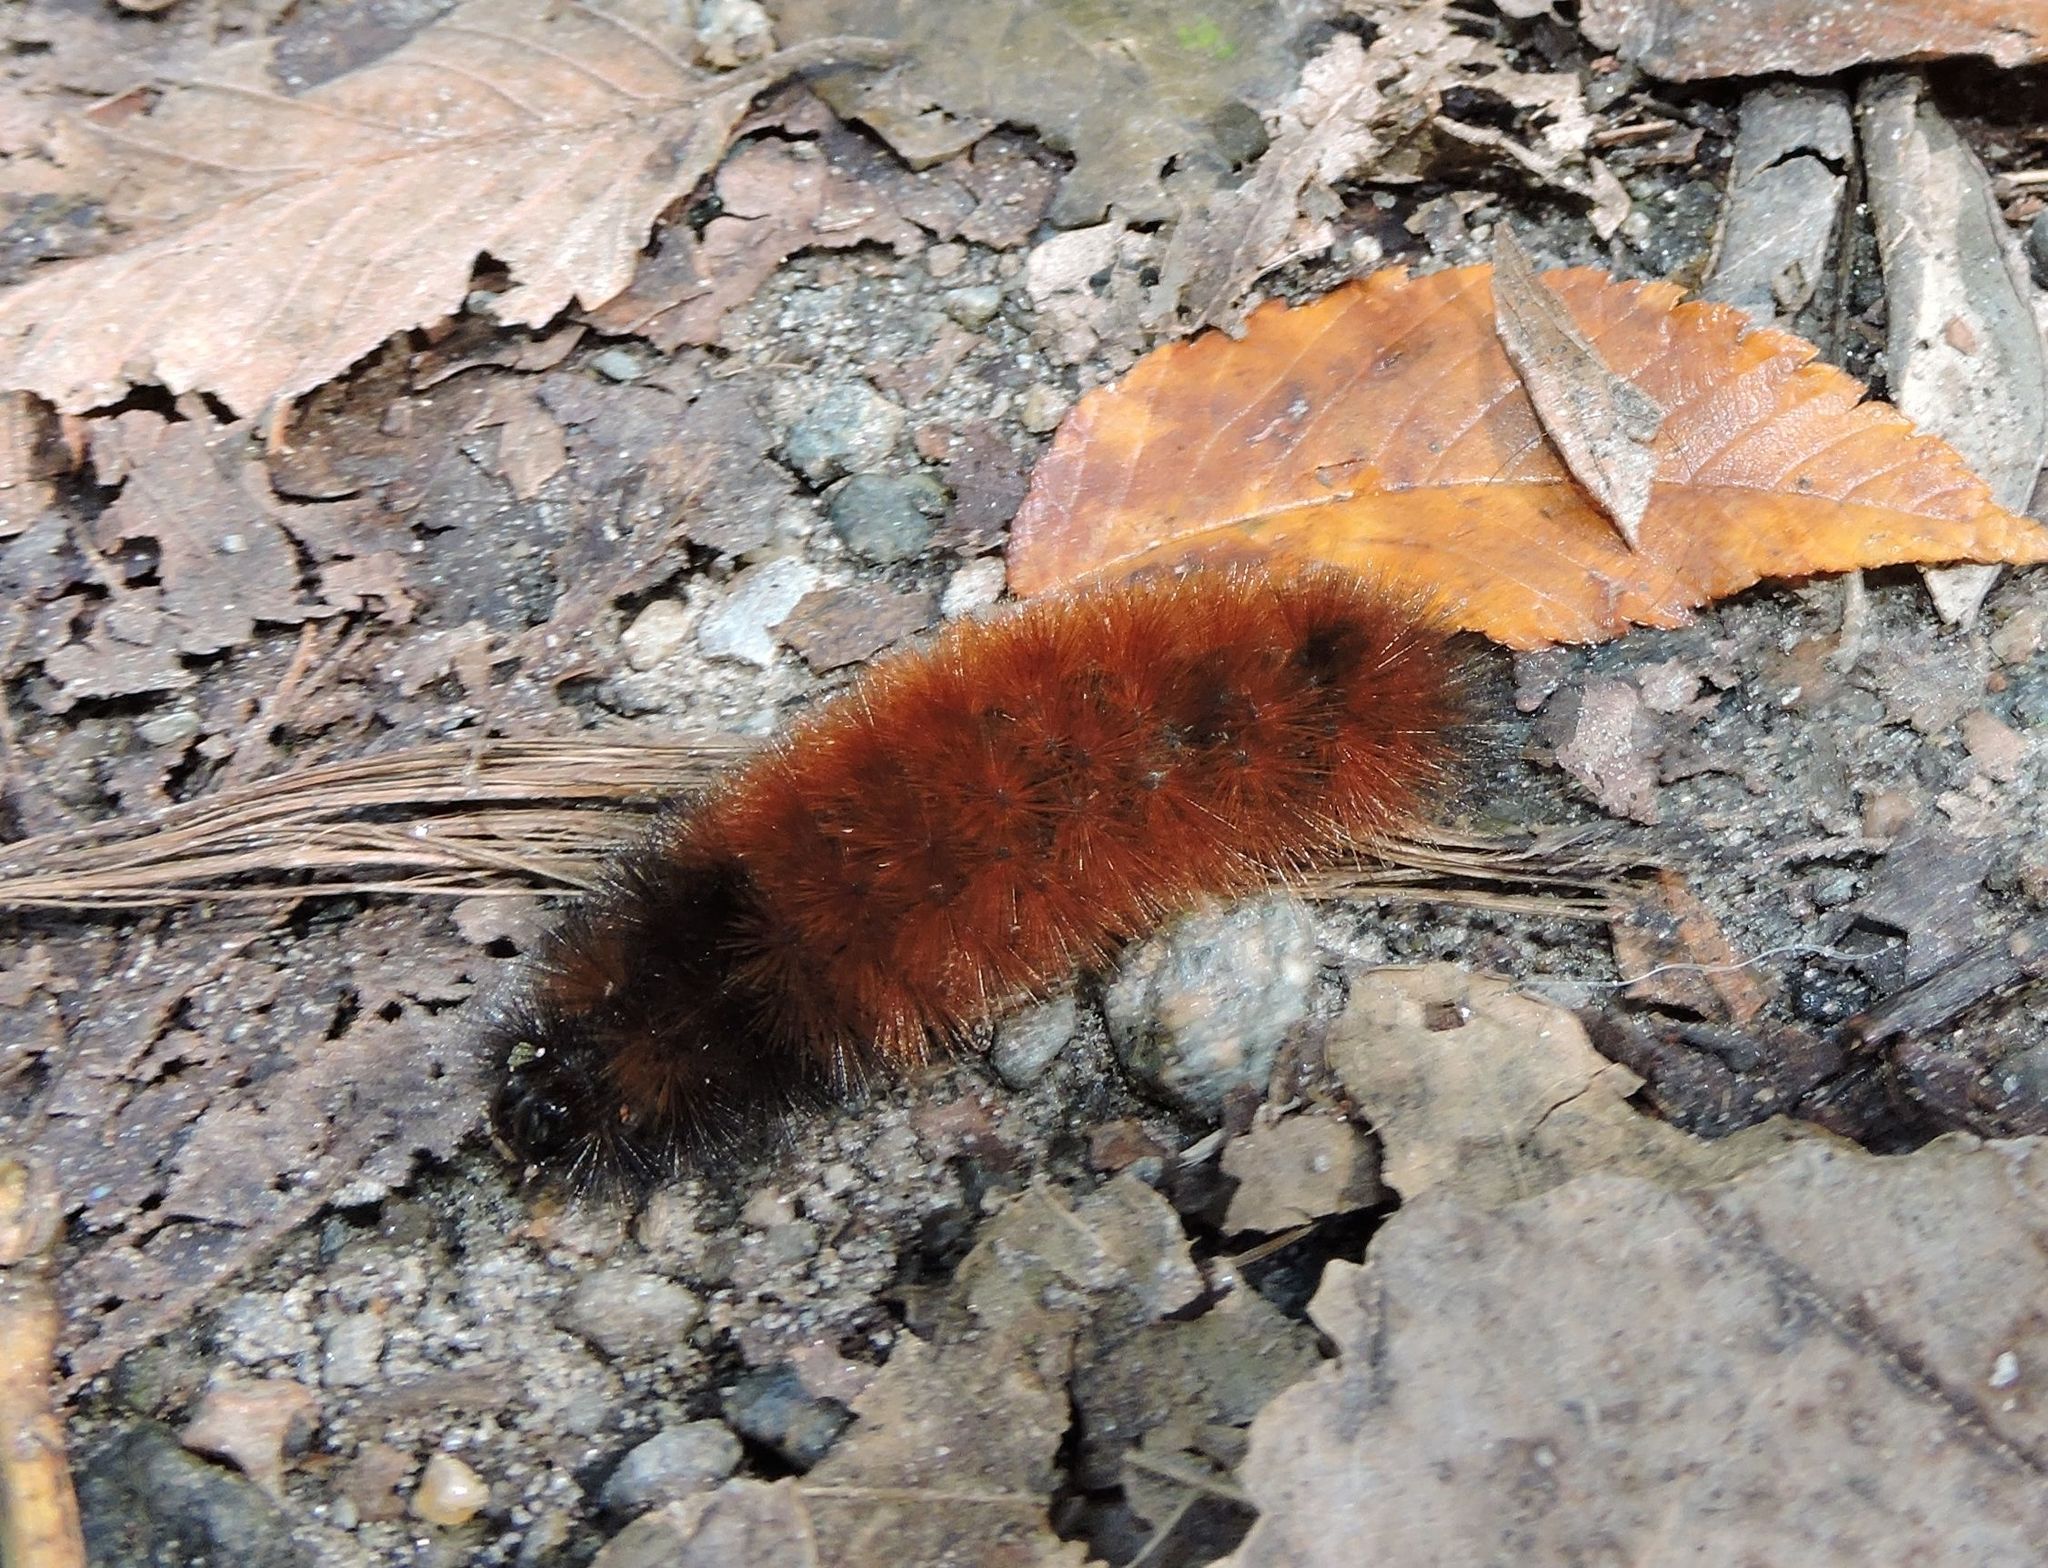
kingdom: Animalia
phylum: Arthropoda
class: Insecta
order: Lepidoptera
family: Erebidae
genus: Pyrrharctia
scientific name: Pyrrharctia isabella
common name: Isabella tiger moth
